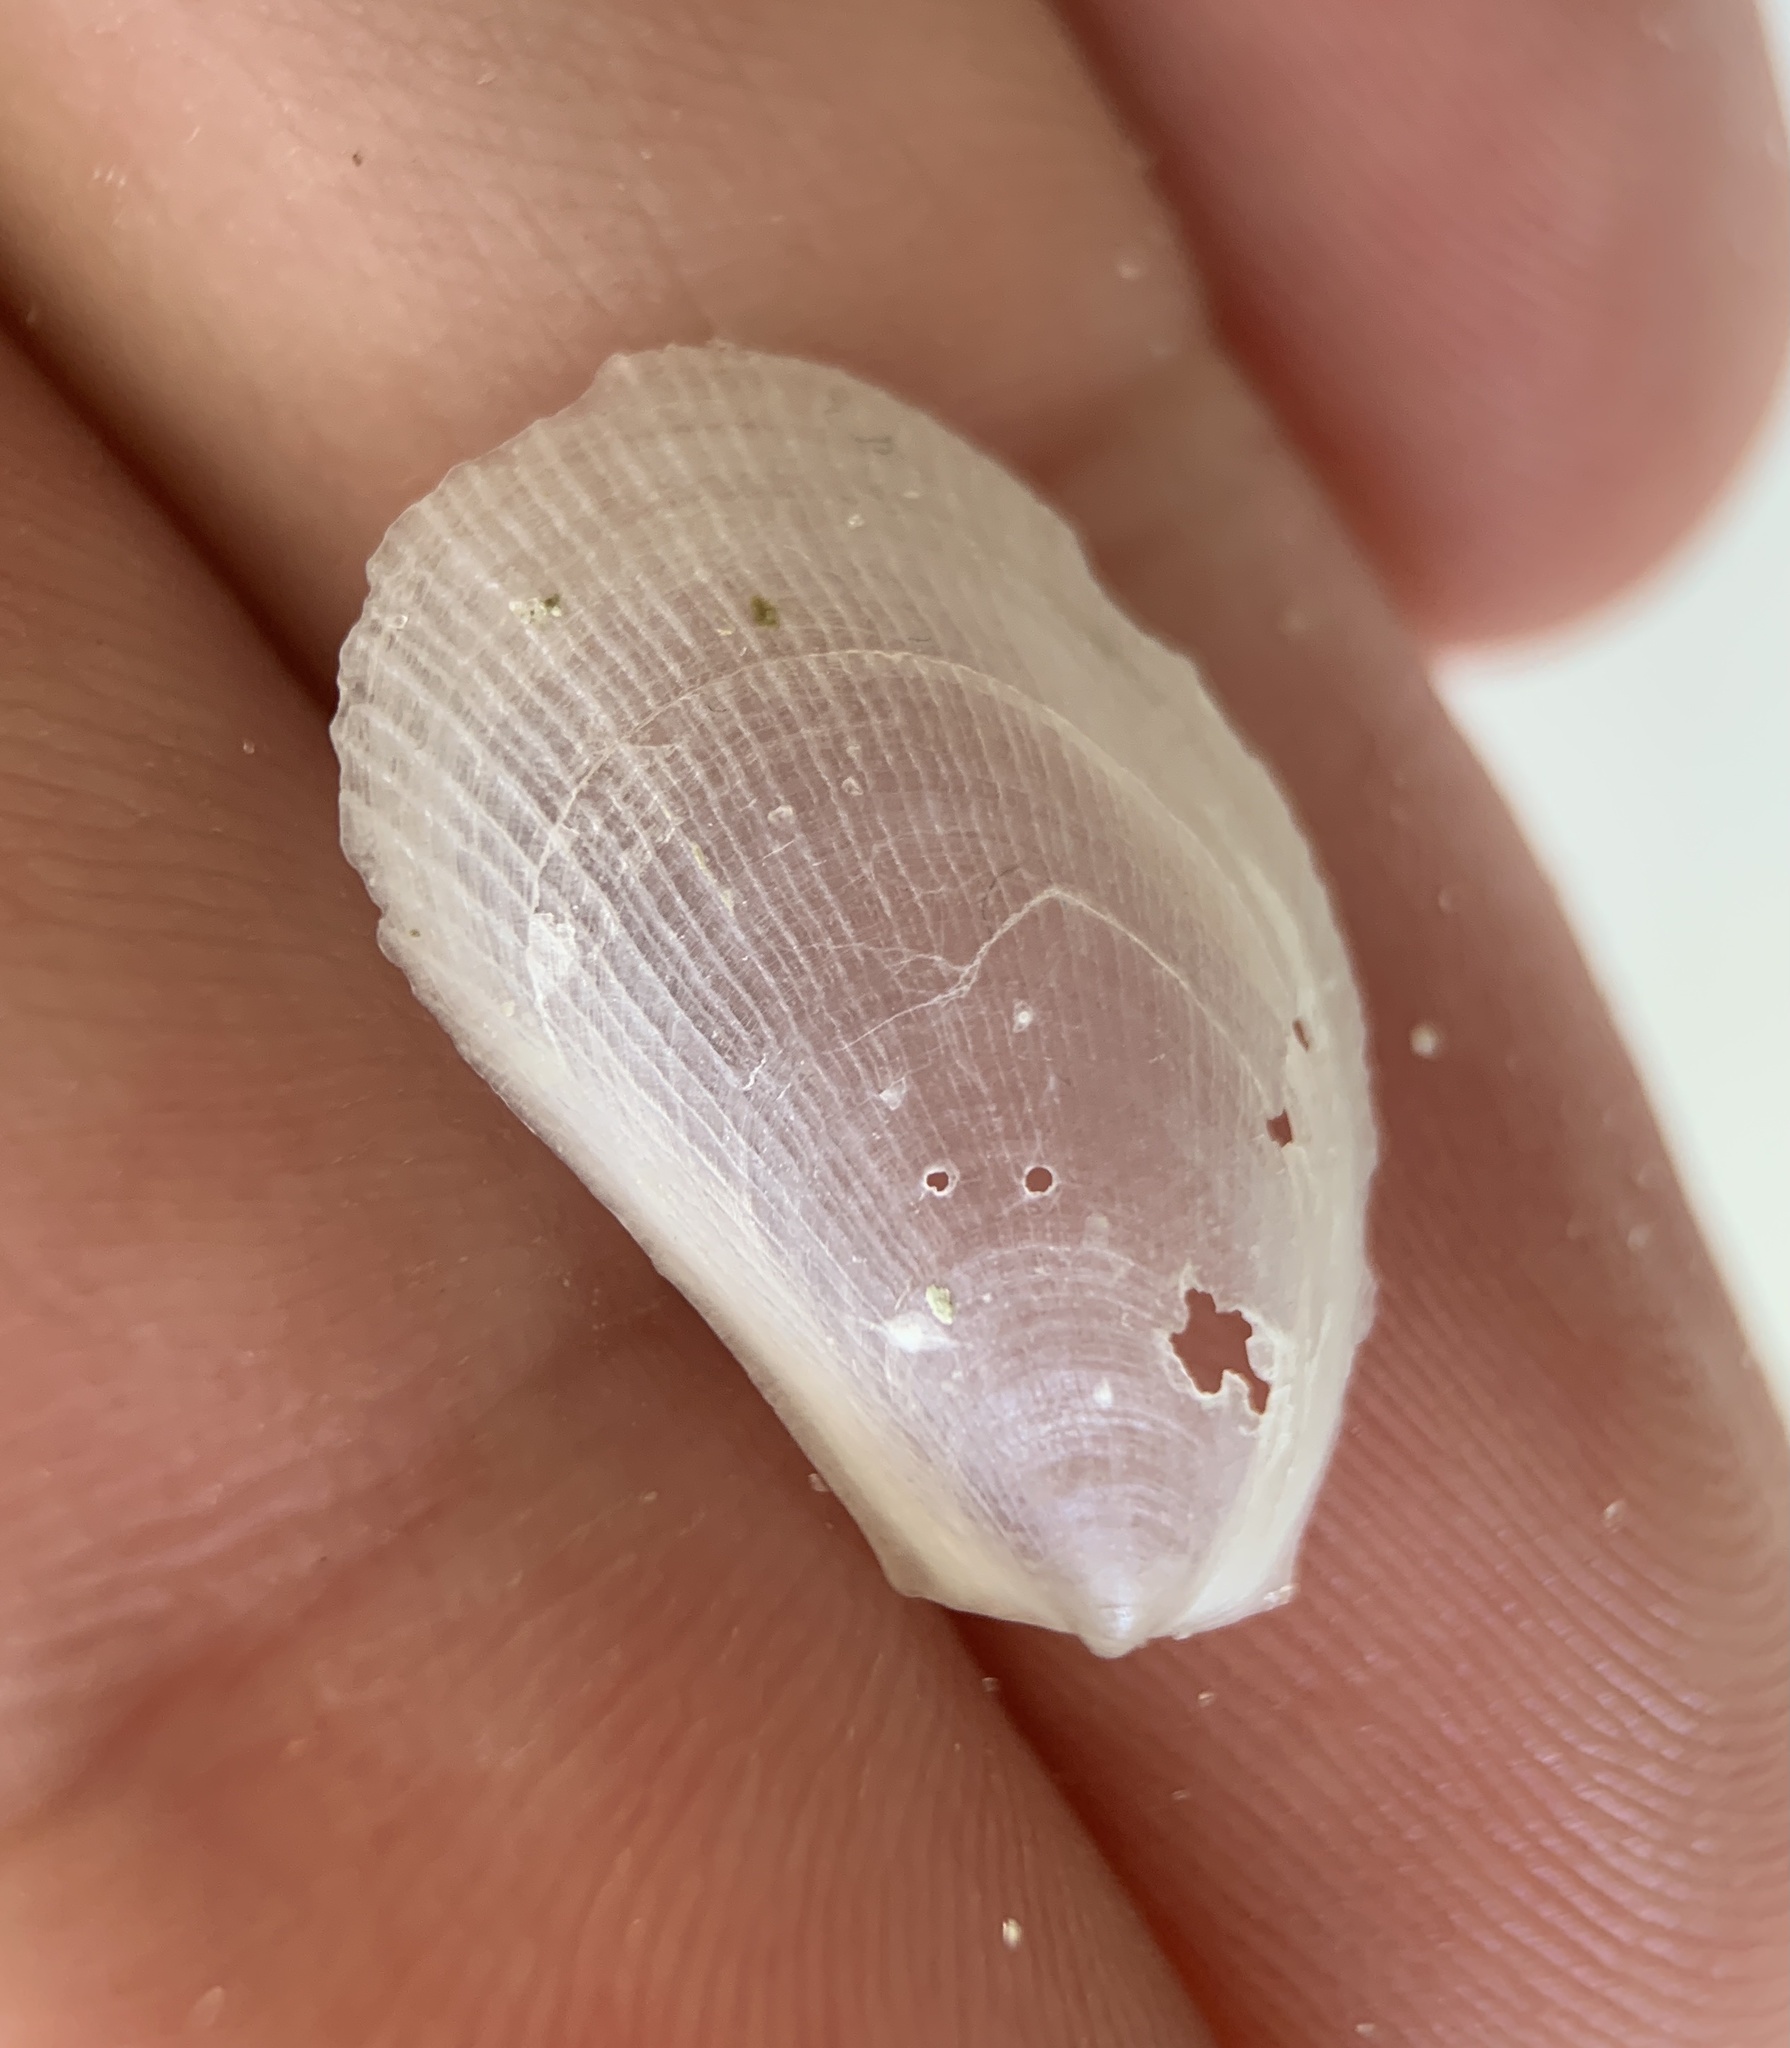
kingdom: Animalia
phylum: Mollusca
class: Bivalvia
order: Limida
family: Limidae
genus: Limaria
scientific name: Limaria pellucida
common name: Antillean fileclam
